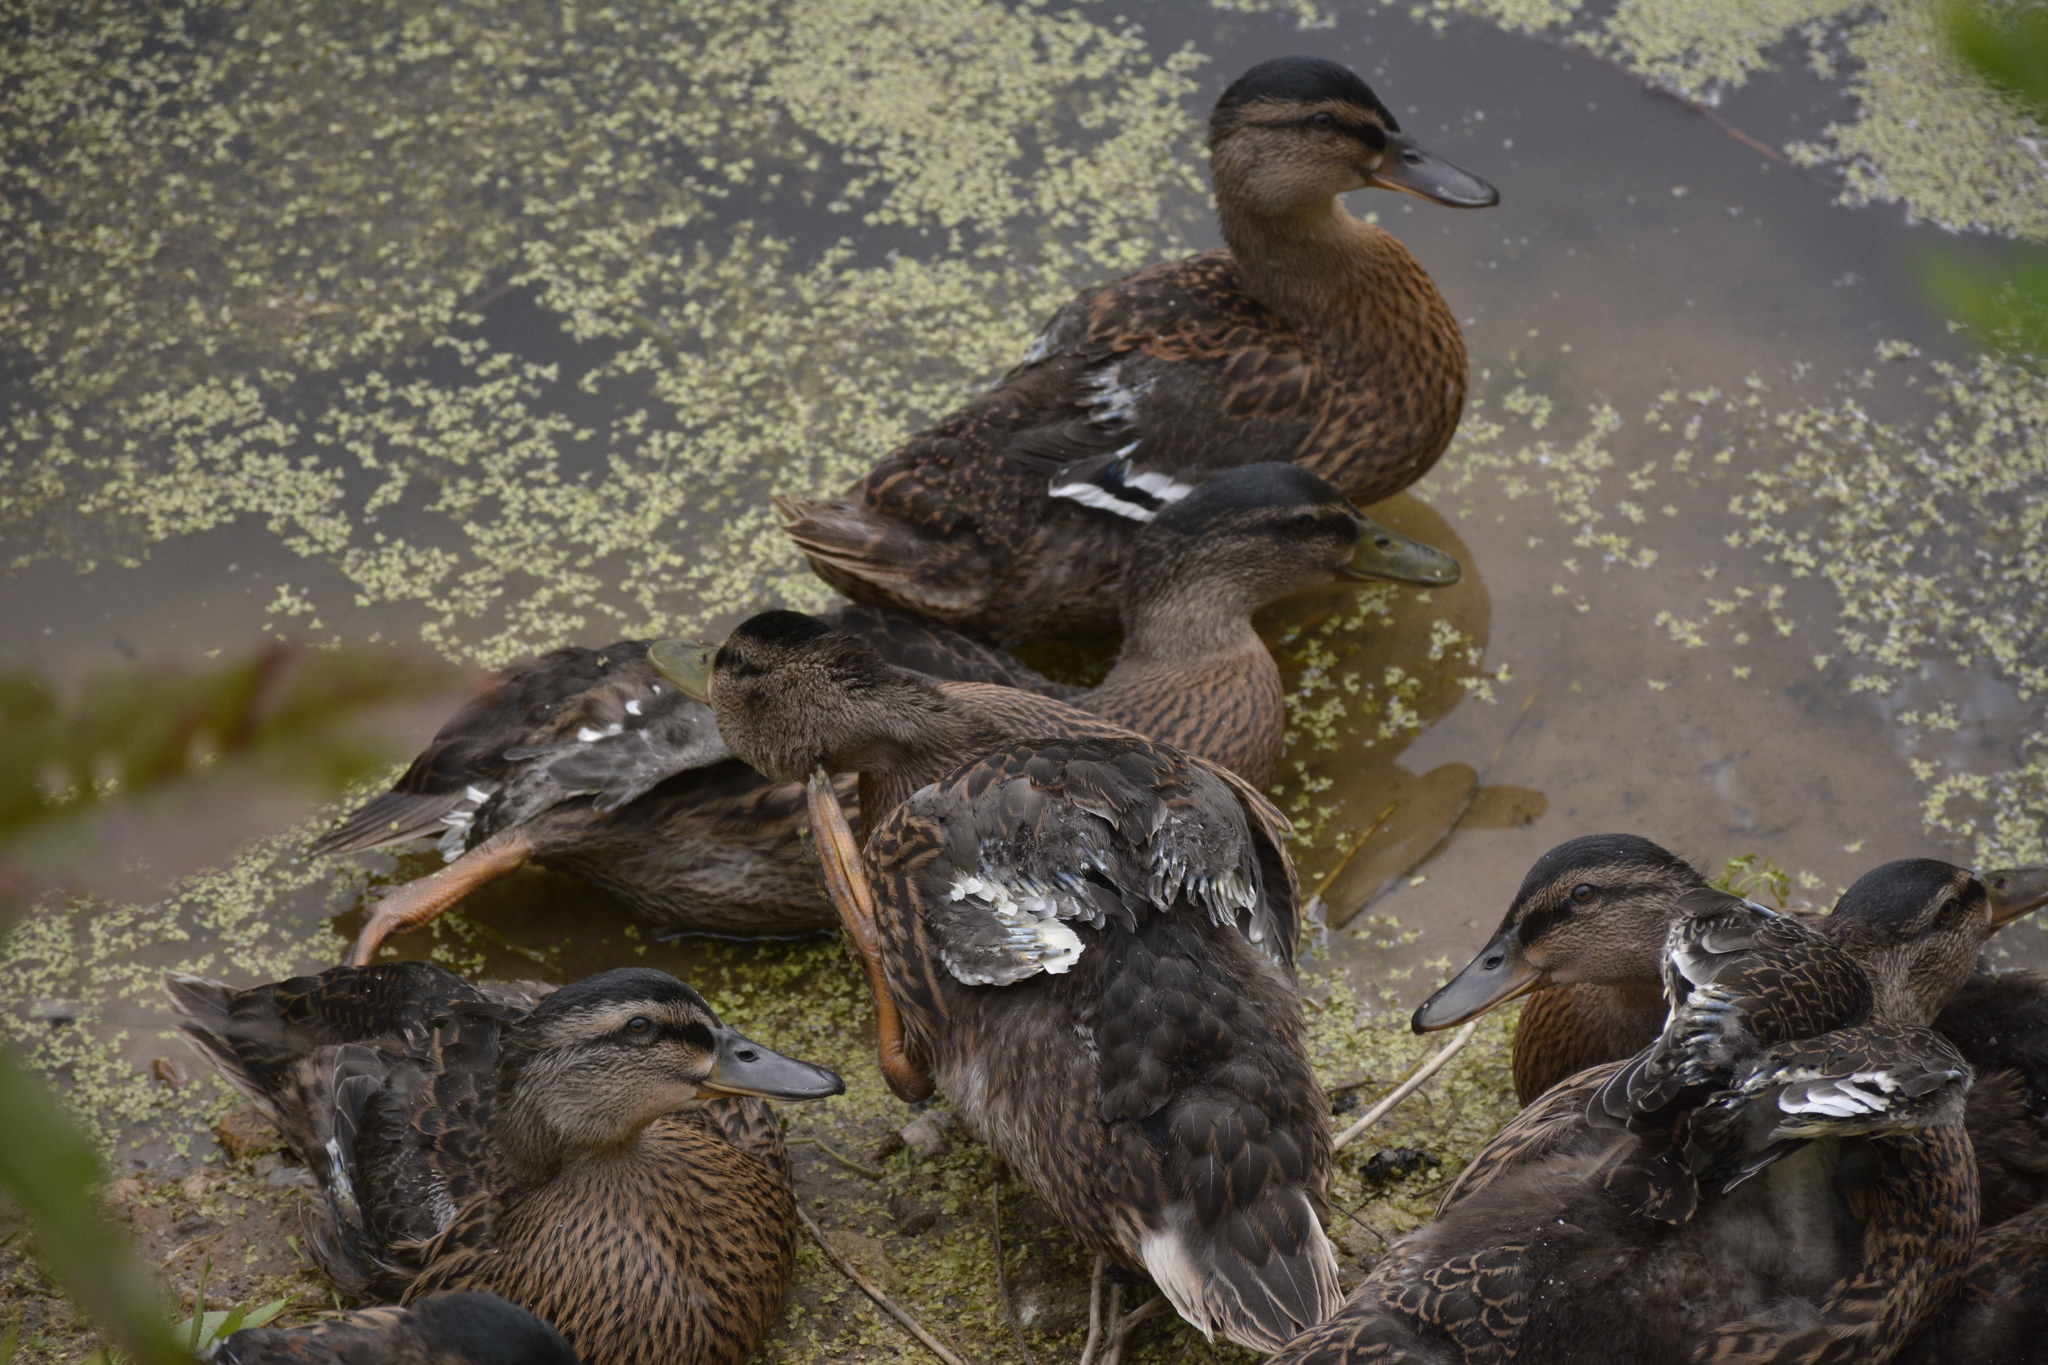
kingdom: Animalia
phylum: Chordata
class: Aves
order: Anseriformes
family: Anatidae
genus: Anas
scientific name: Anas platyrhynchos
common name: Mallard
